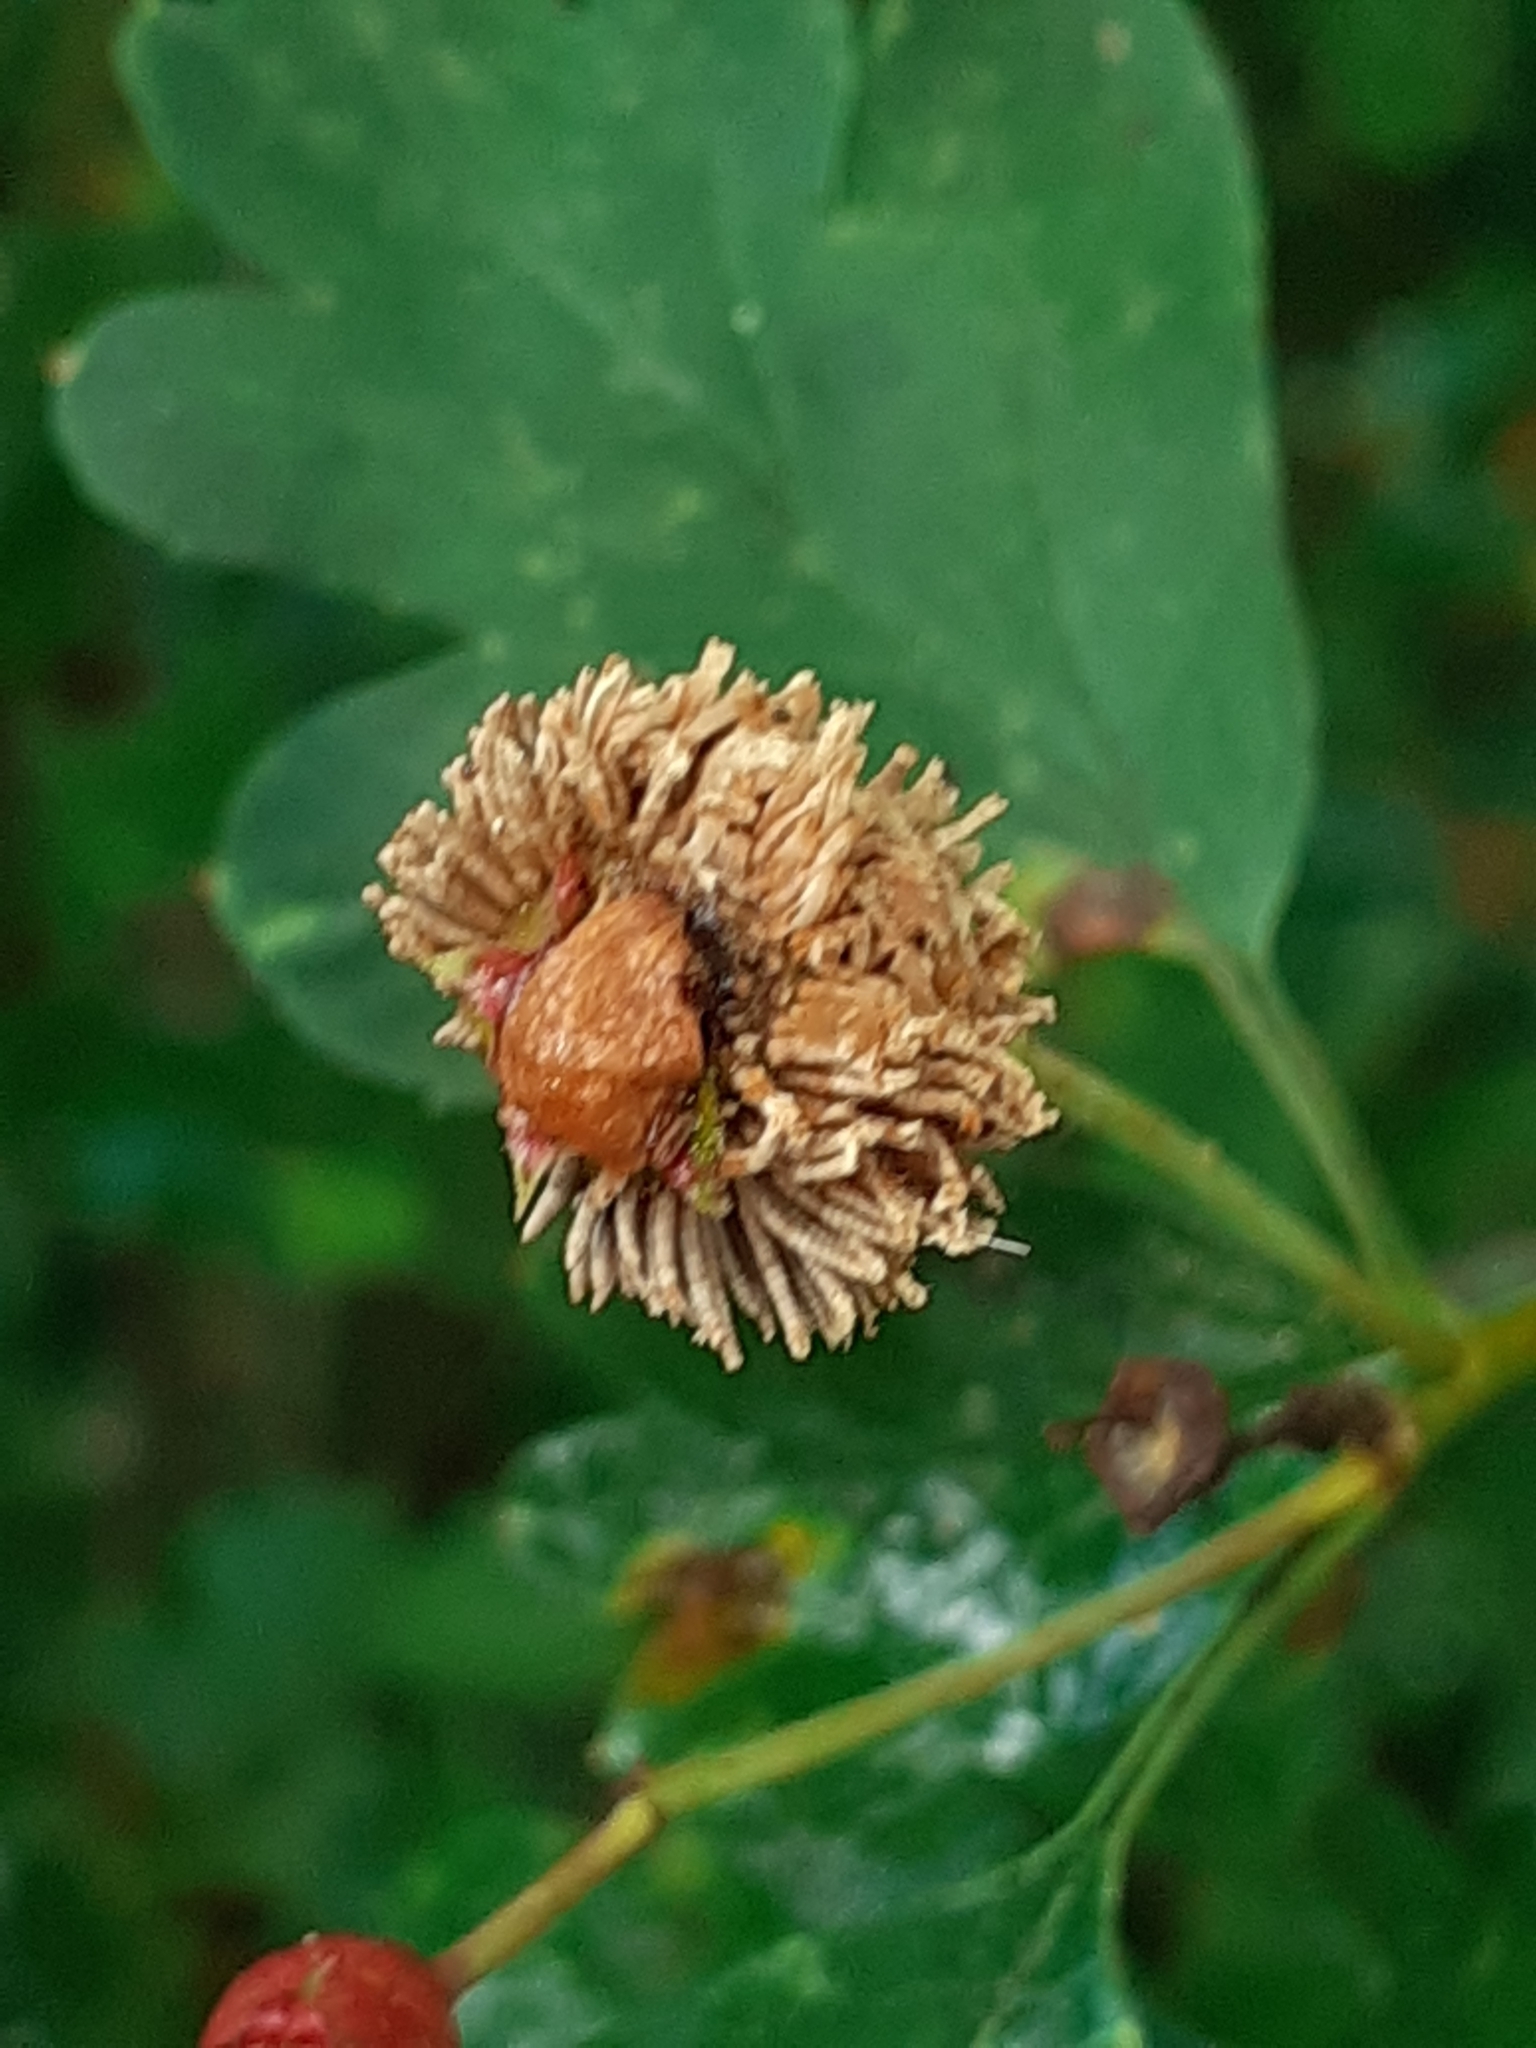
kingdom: Fungi
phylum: Basidiomycota
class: Pucciniomycetes
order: Pucciniales
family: Gymnosporangiaceae
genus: Gymnosporangium
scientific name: Gymnosporangium clavariiforme
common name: Tongues of fire
